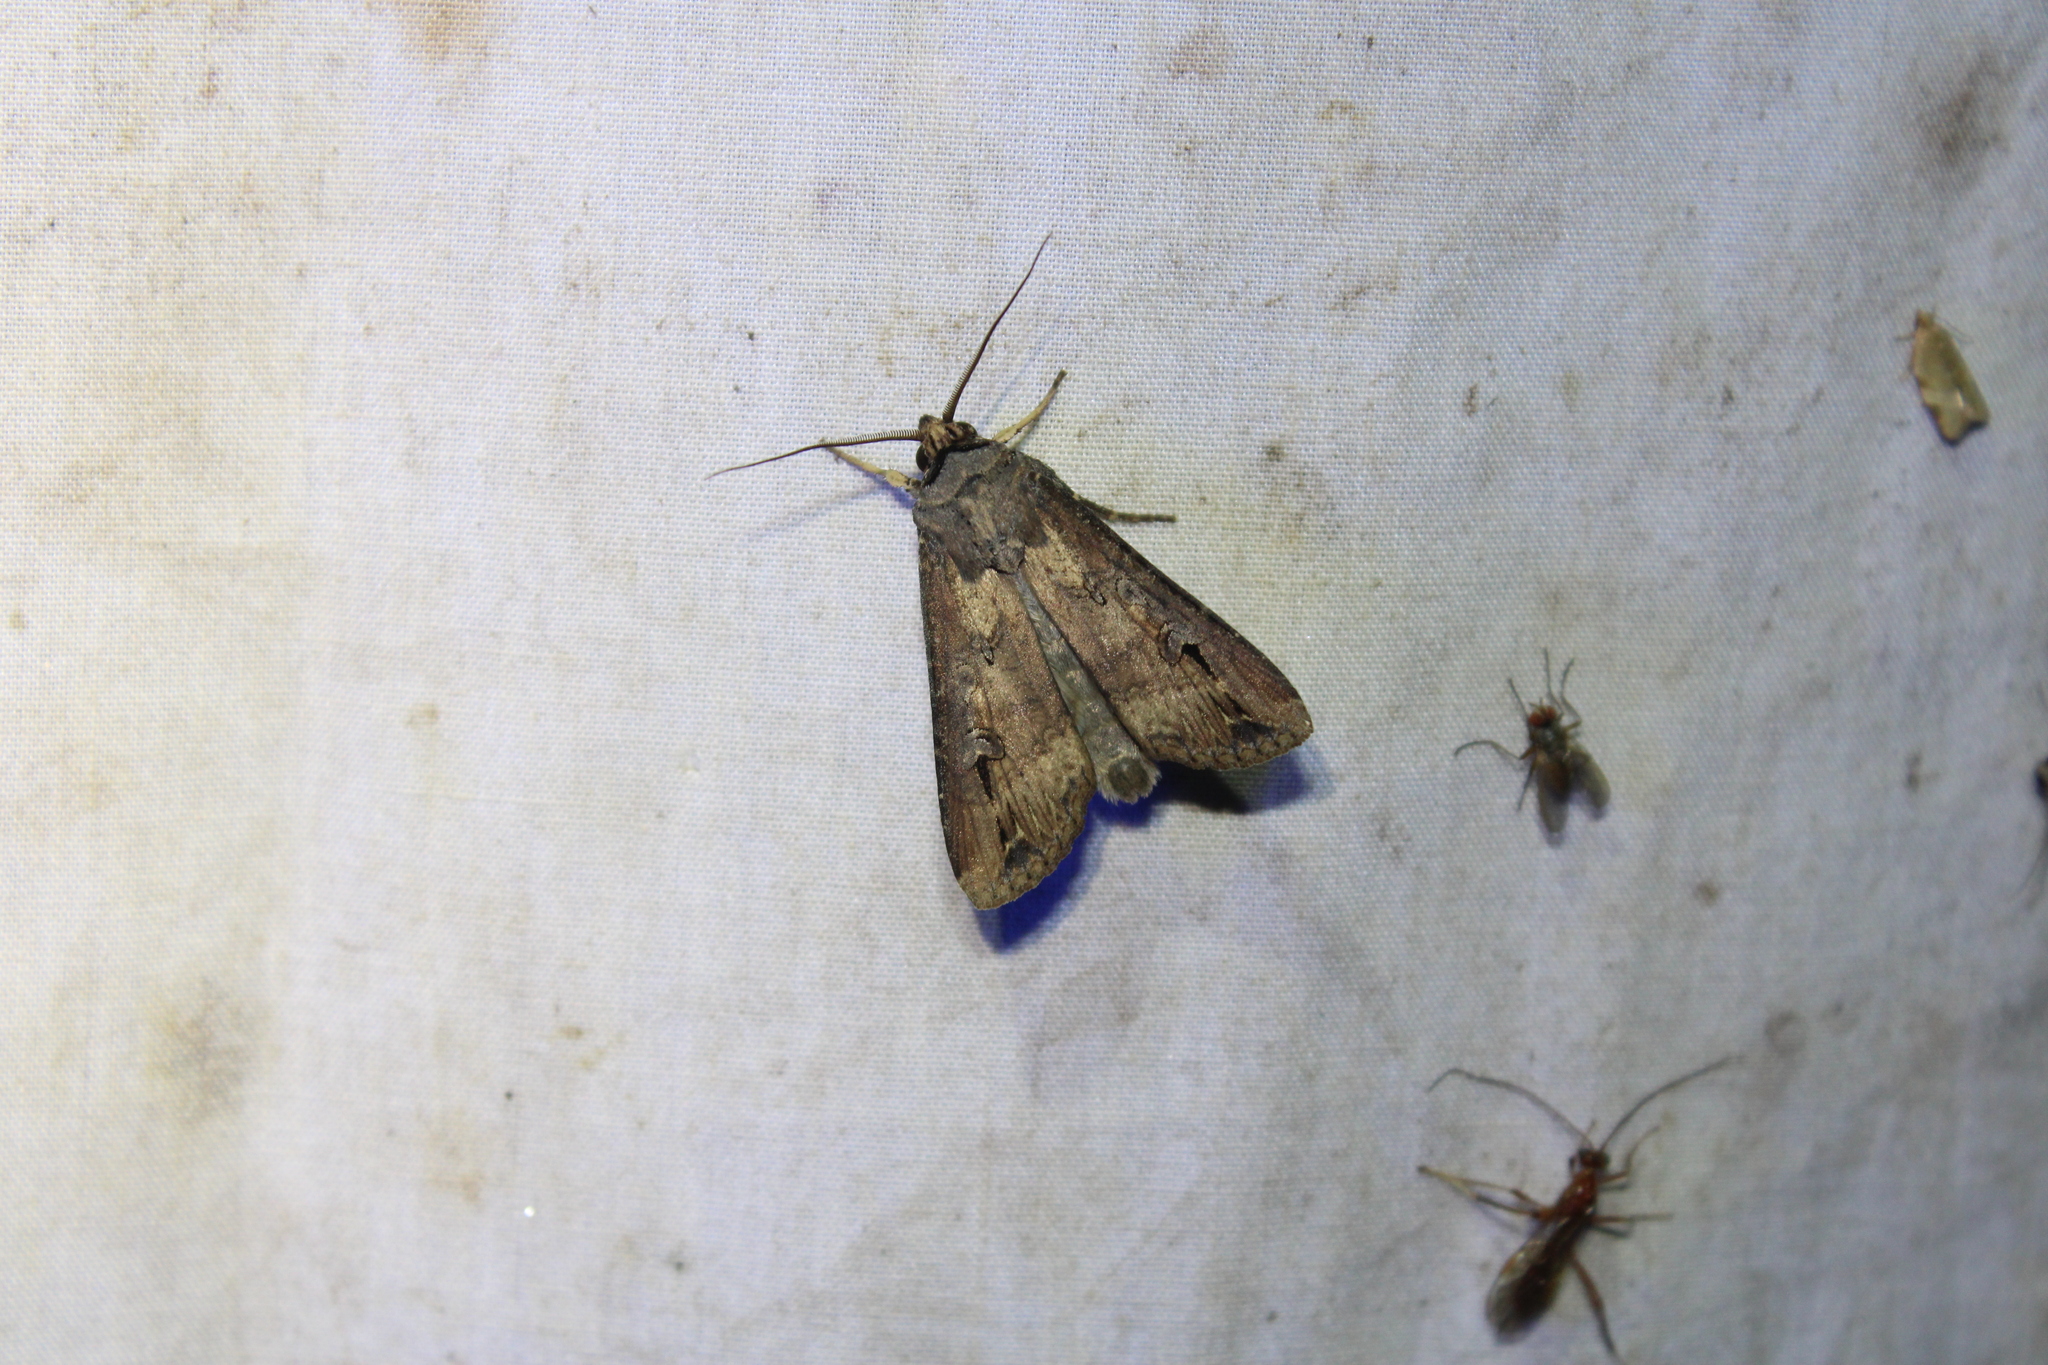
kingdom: Animalia
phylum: Arthropoda
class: Insecta
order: Lepidoptera
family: Noctuidae
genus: Agrotis
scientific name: Agrotis ipsilon
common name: Dark sword-grass
